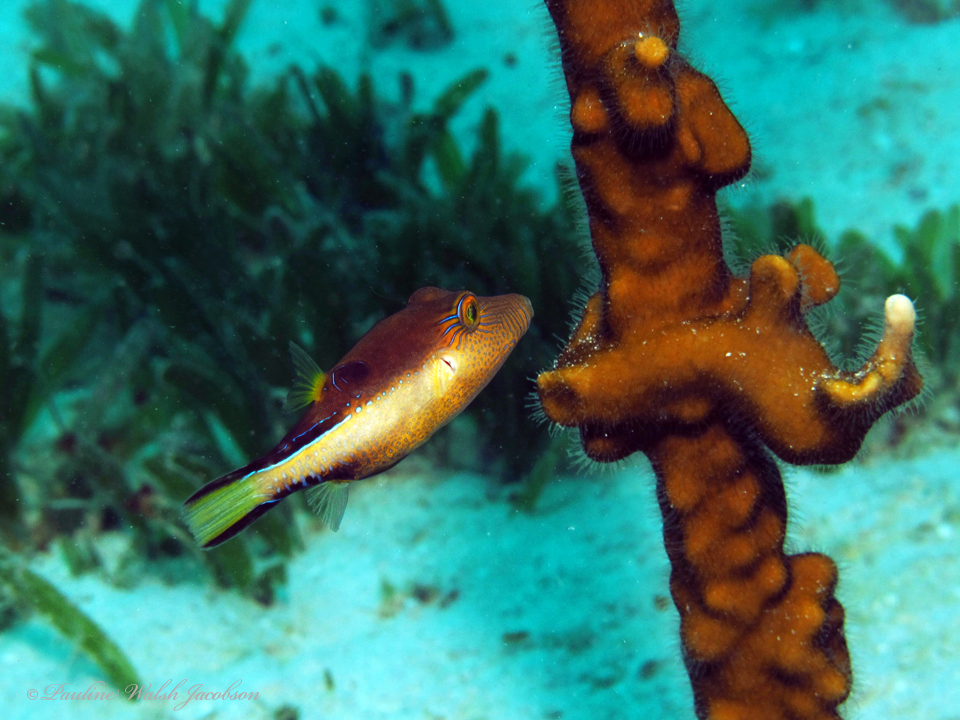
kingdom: Animalia
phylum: Chordata
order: Tetraodontiformes
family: Tetraodontidae
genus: Canthigaster
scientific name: Canthigaster rostrata
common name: Caribbean sharpnose-puffer
